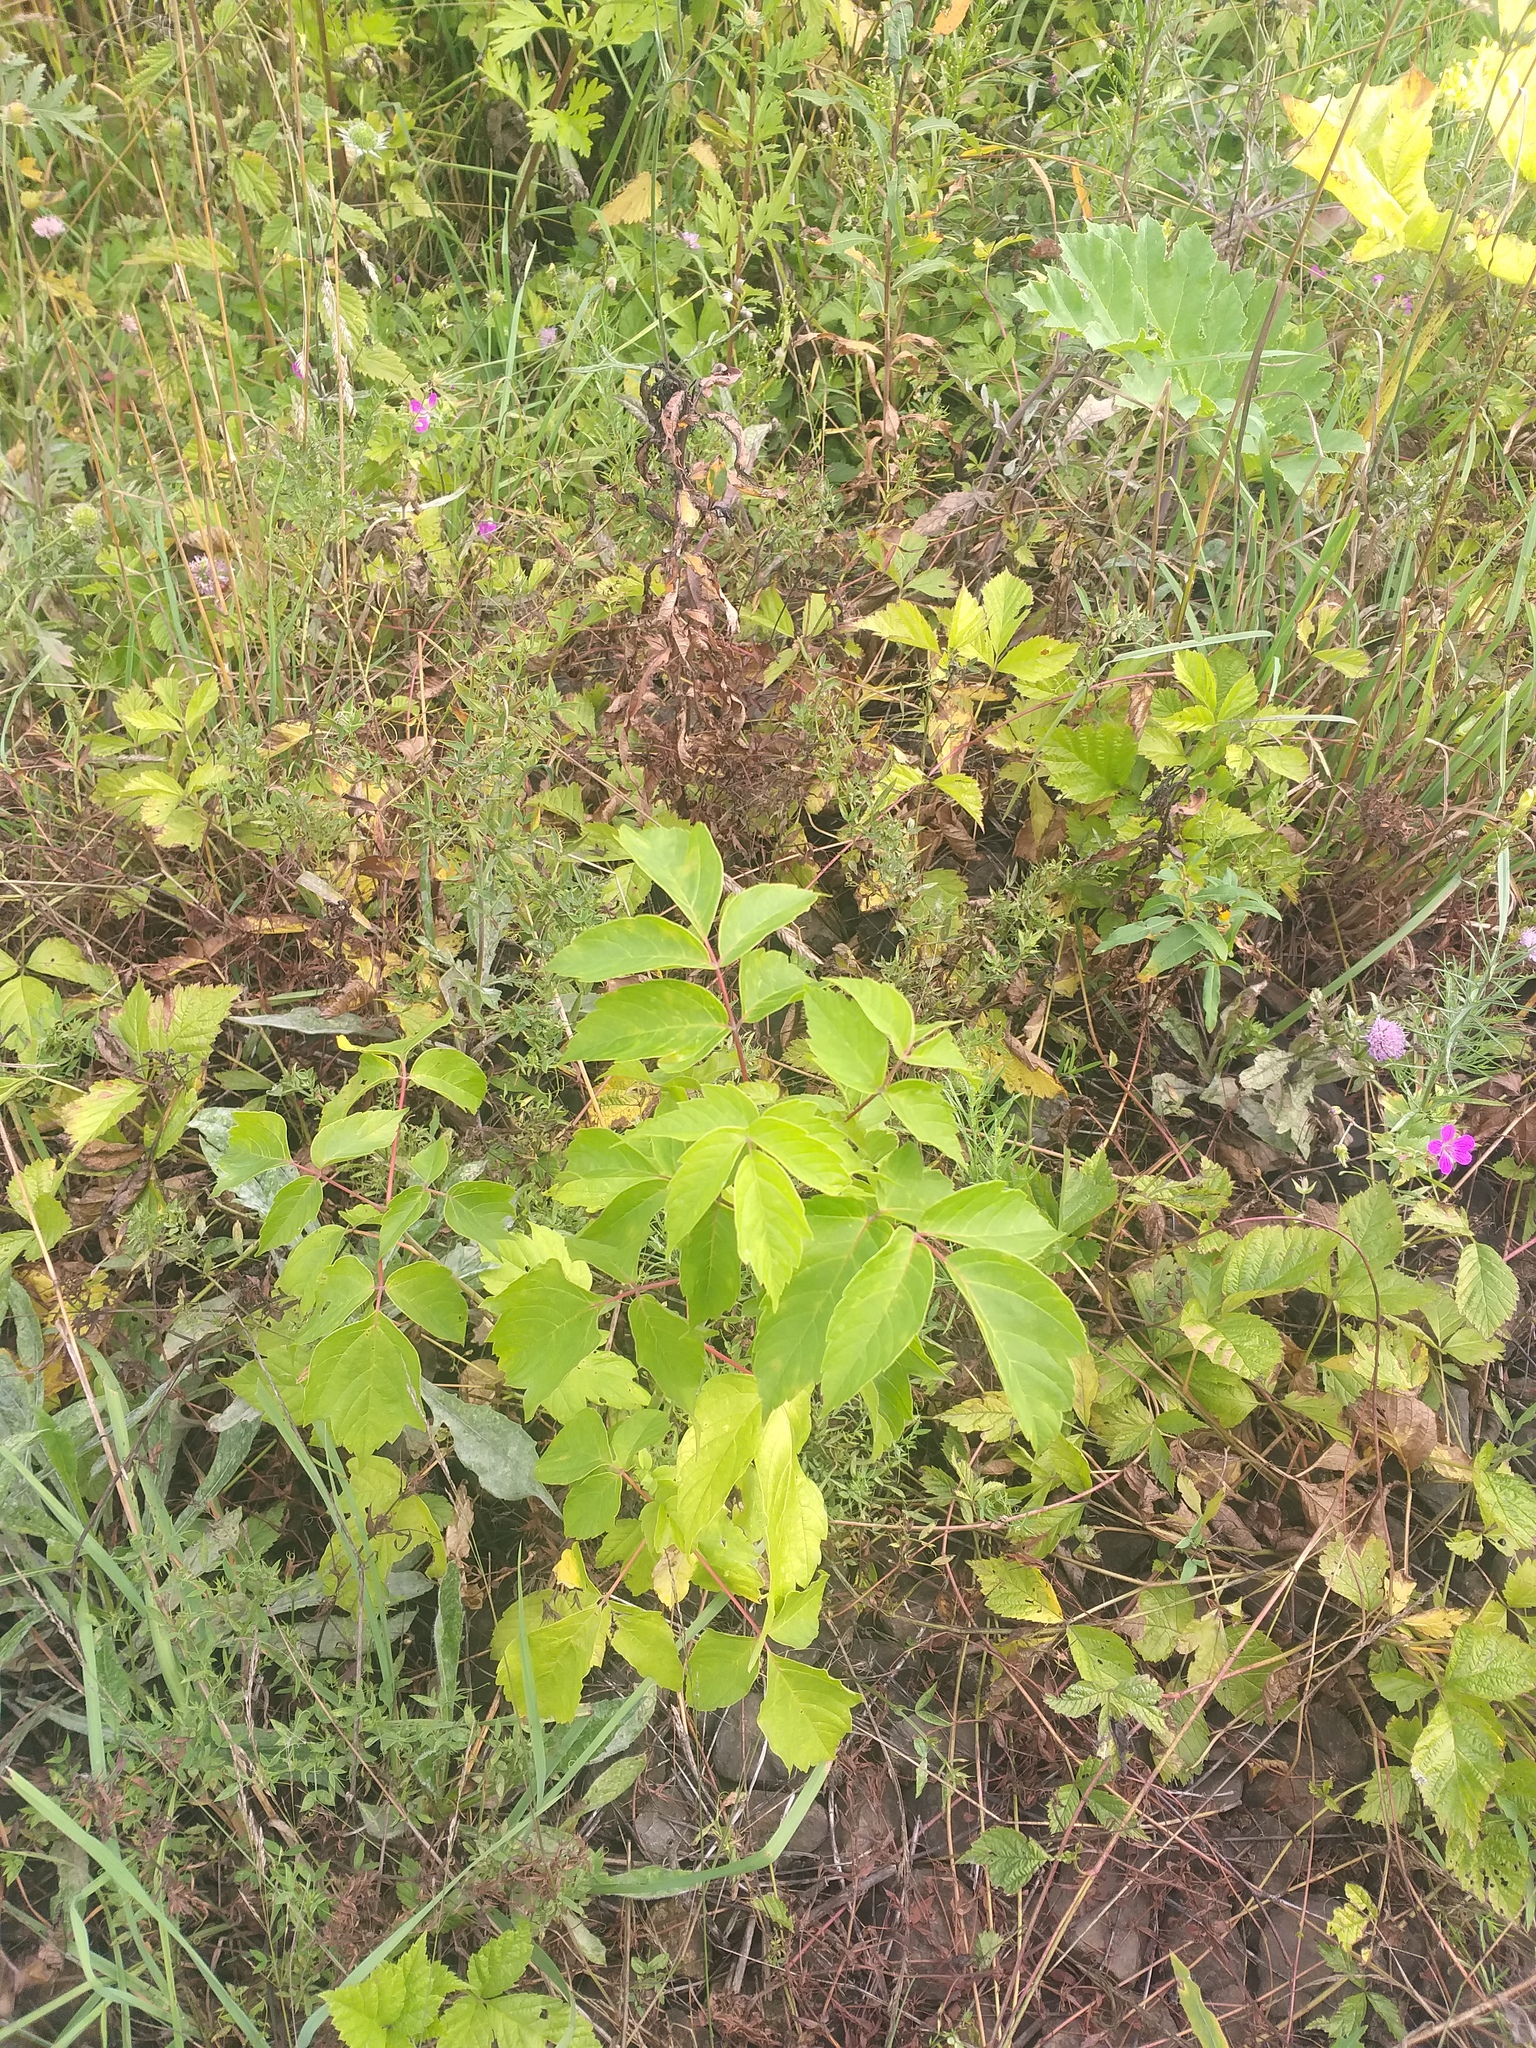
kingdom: Plantae
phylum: Tracheophyta
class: Magnoliopsida
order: Sapindales
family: Sapindaceae
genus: Acer
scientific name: Acer negundo
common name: Ashleaf maple
